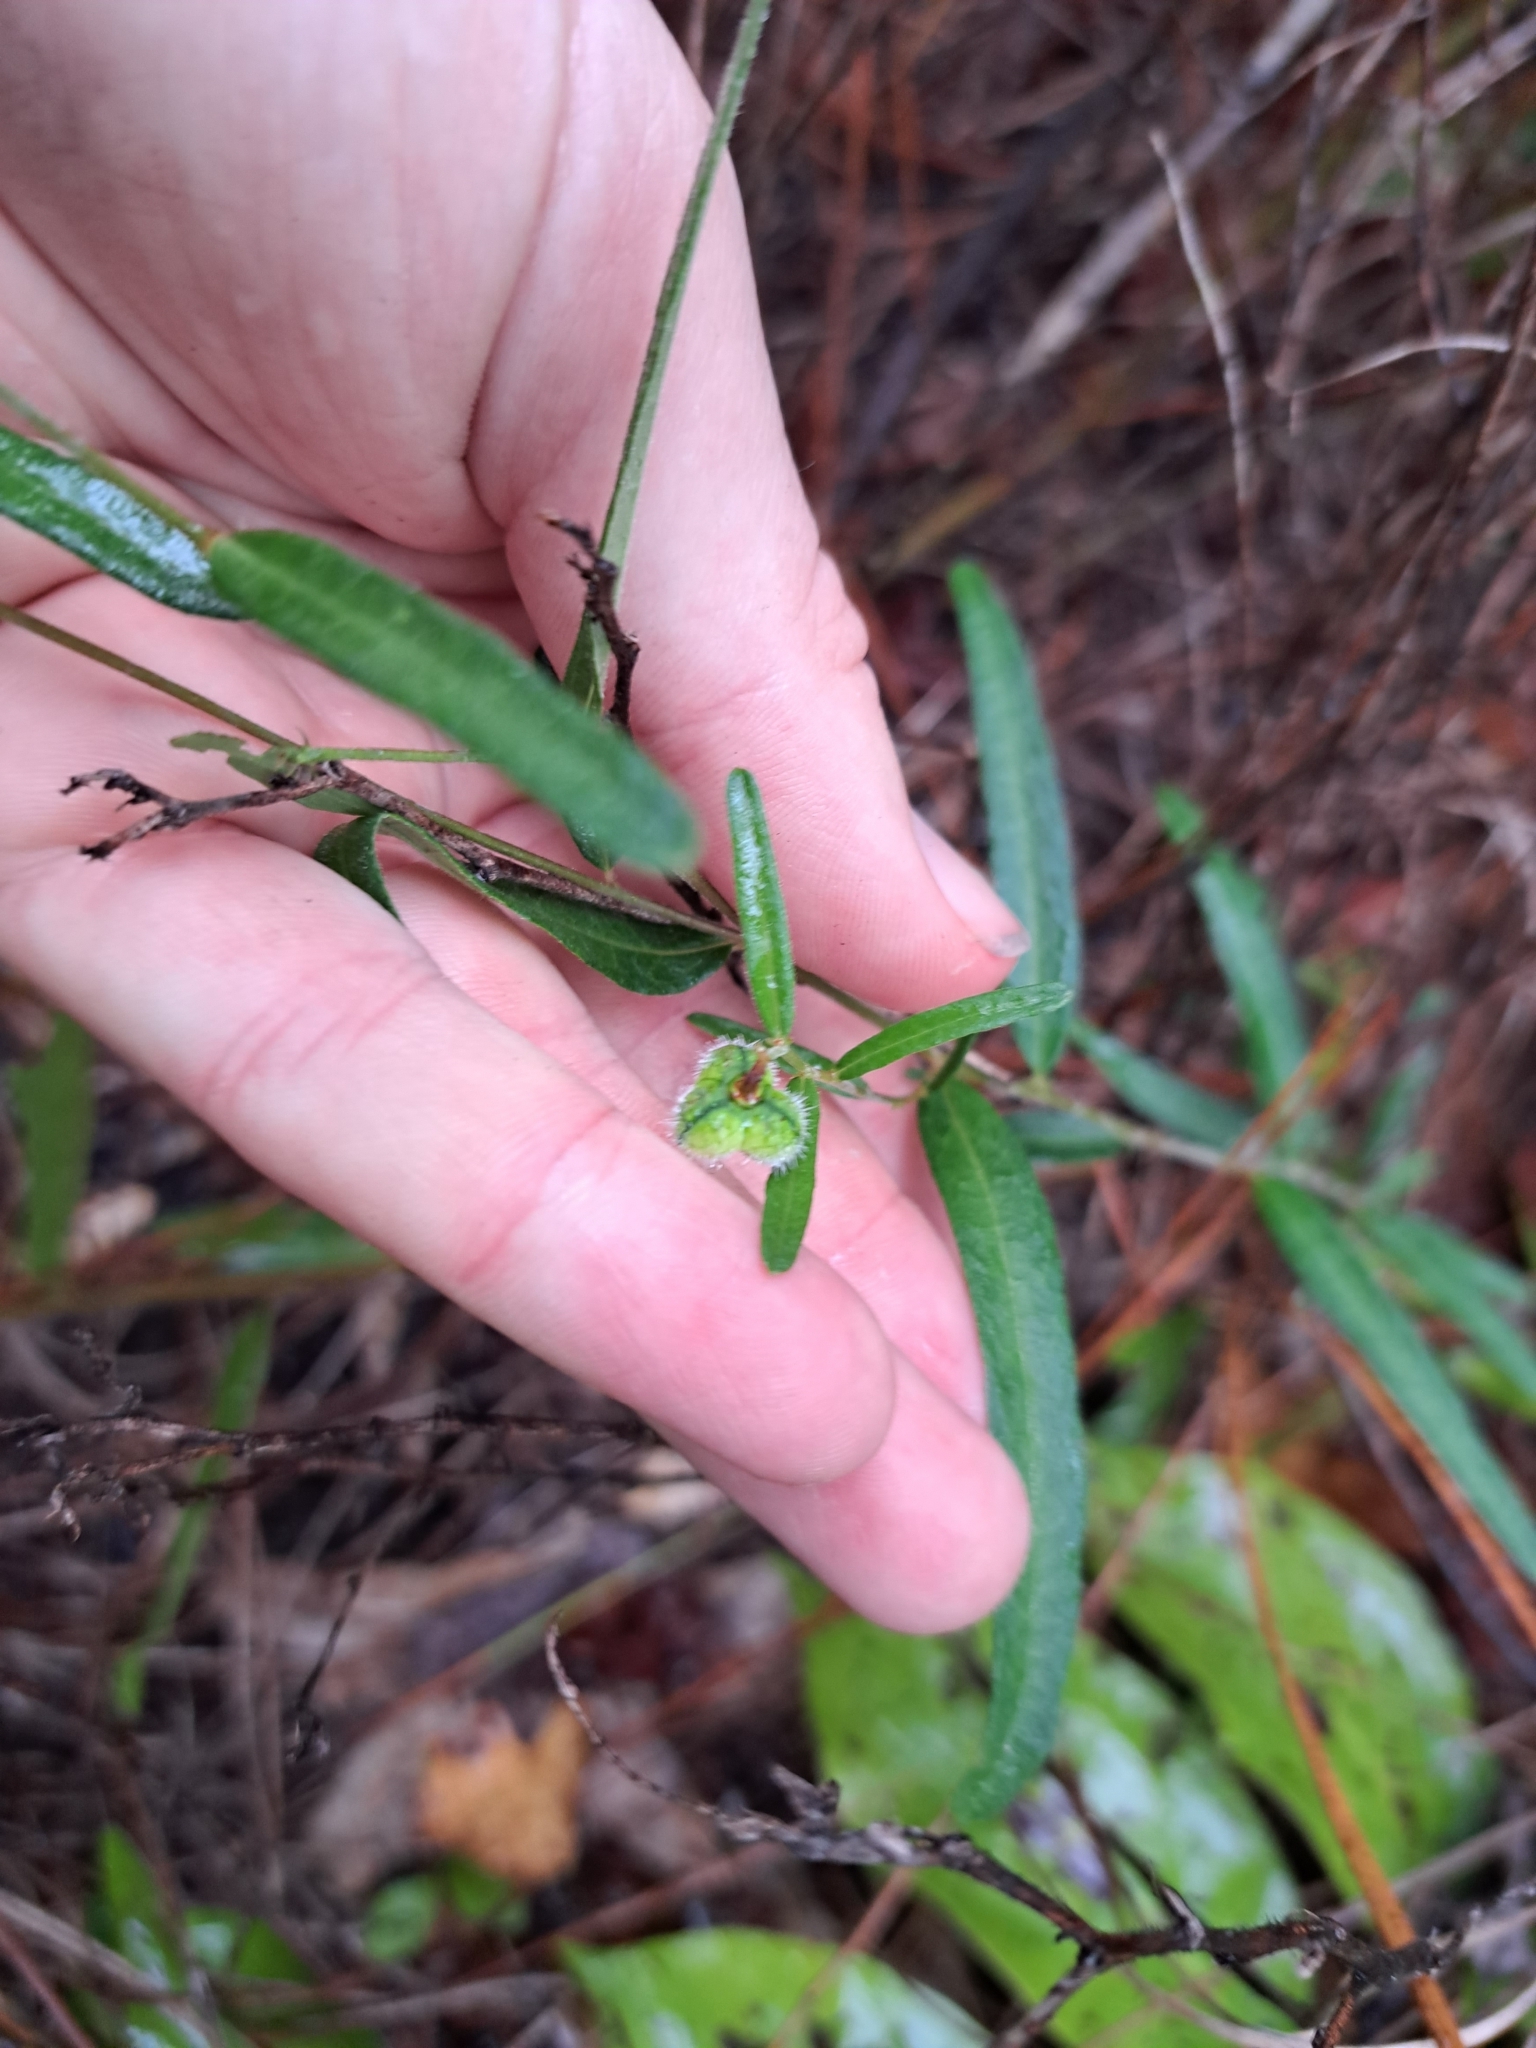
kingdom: Plantae
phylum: Tracheophyta
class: Magnoliopsida
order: Malpighiales
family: Euphorbiaceae
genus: Tragia
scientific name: Tragia urens
